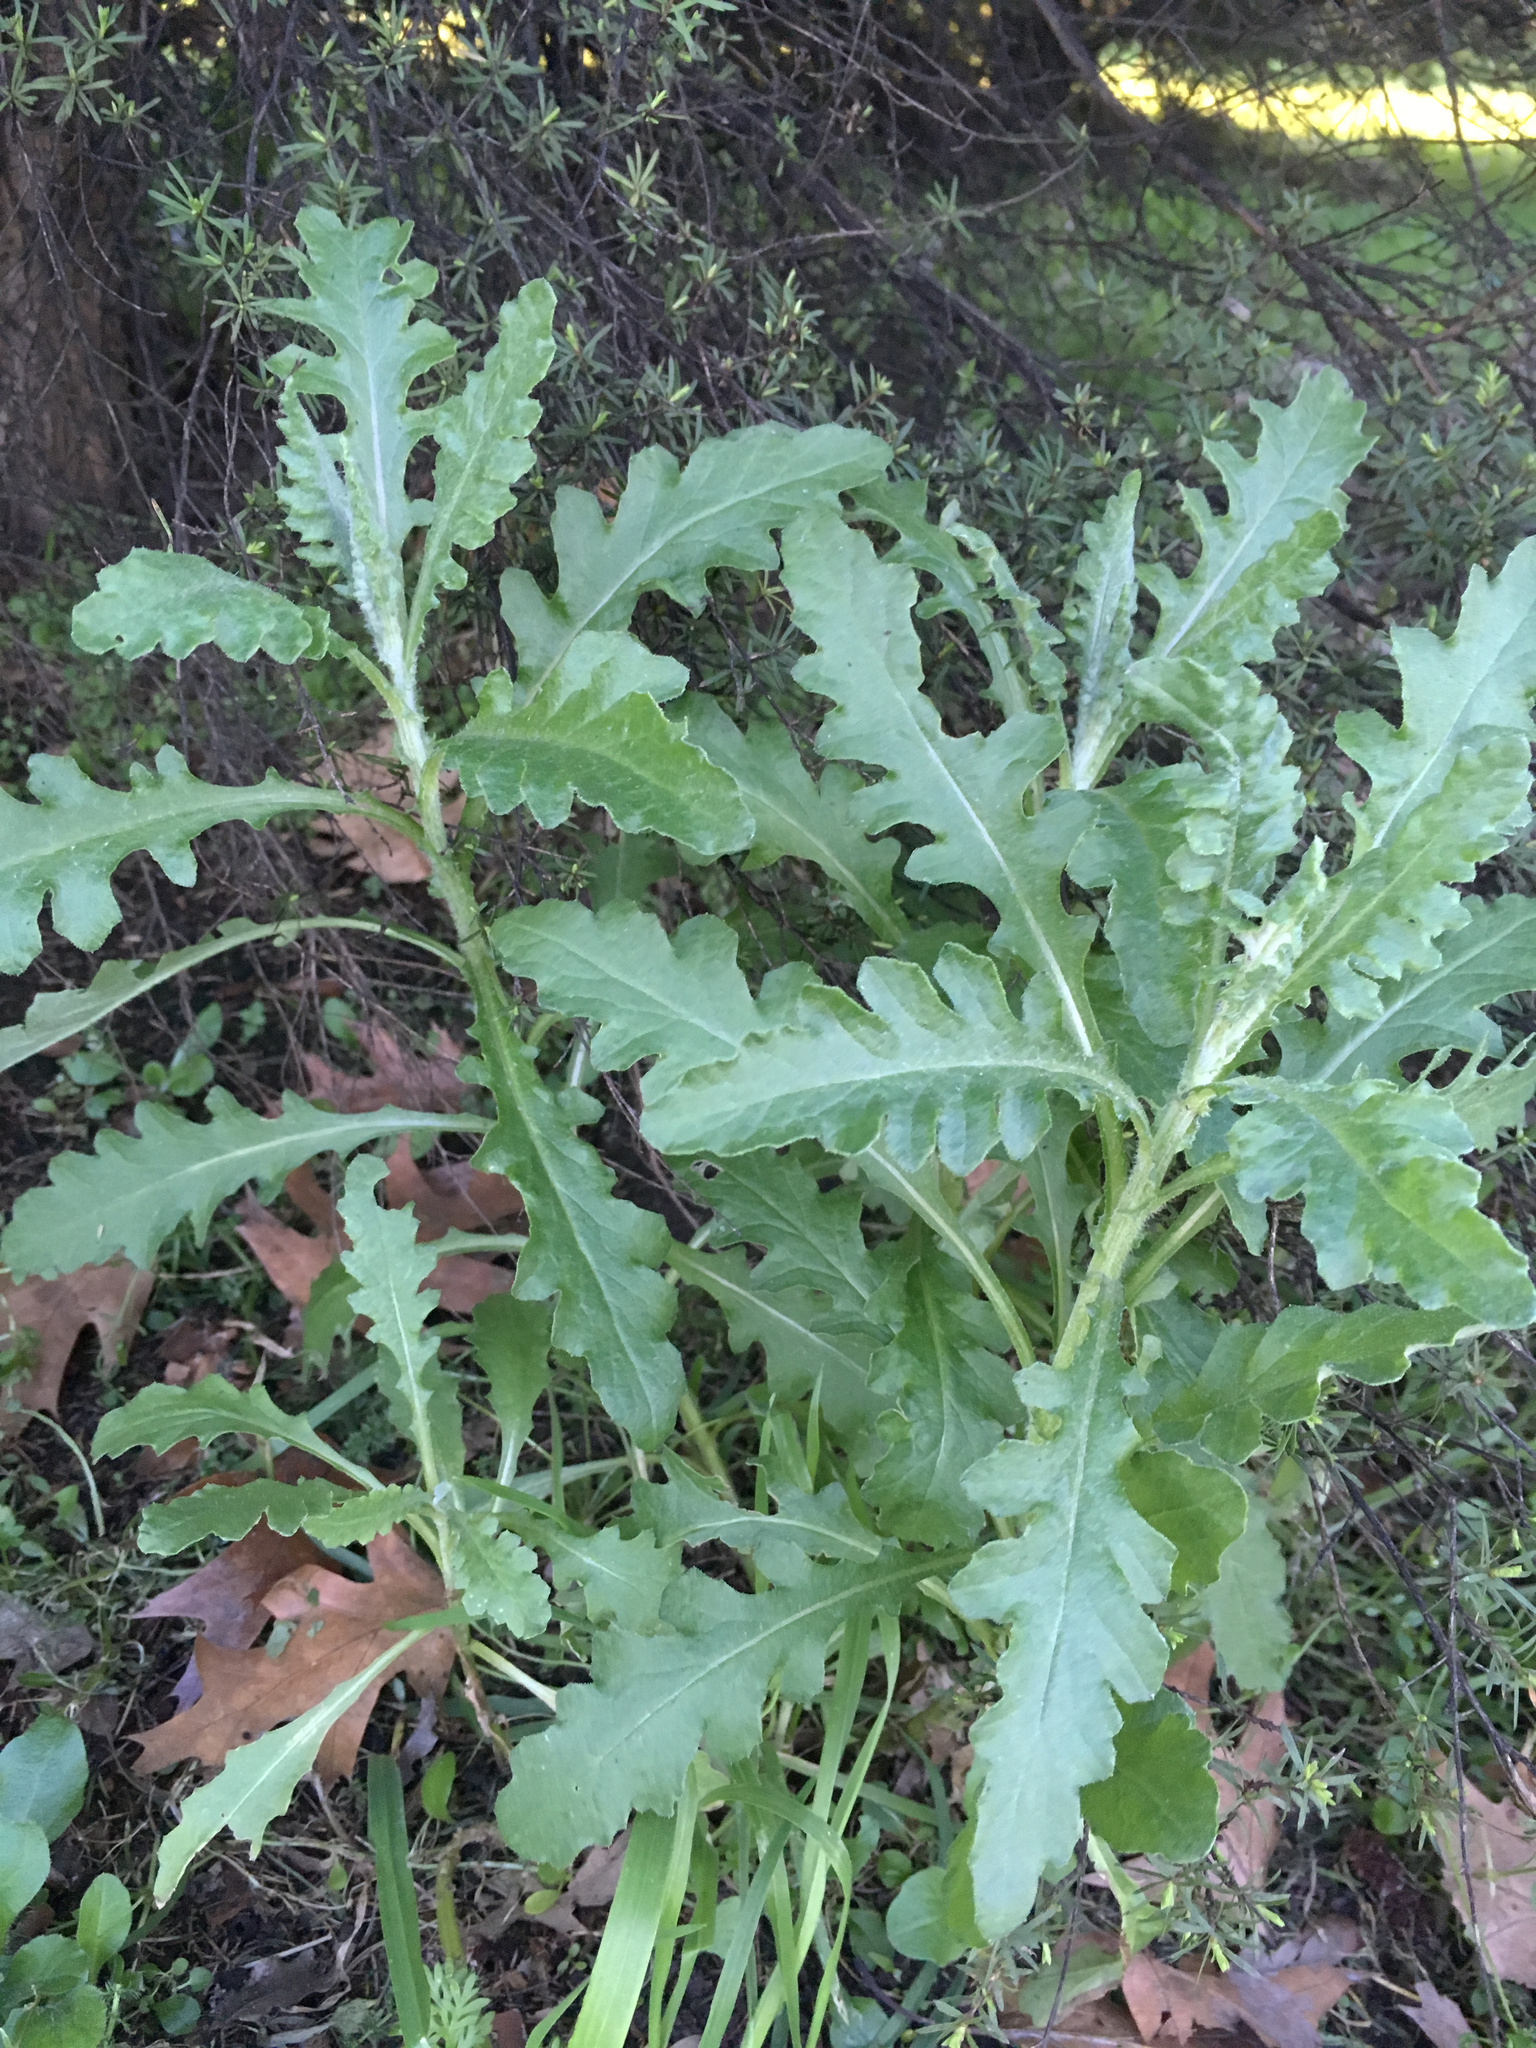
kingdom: Plantae
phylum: Tracheophyta
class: Magnoliopsida
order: Asterales
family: Asteraceae
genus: Senecio
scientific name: Senecio glomeratus
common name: Cutleaf burnweed
